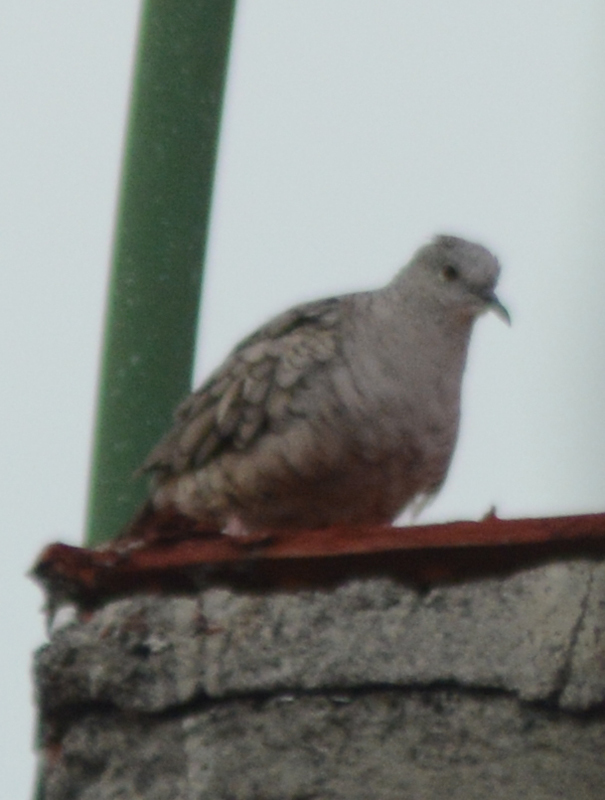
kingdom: Animalia
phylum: Chordata
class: Aves
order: Columbiformes
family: Columbidae
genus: Columbina
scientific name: Columbina inca
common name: Inca dove
